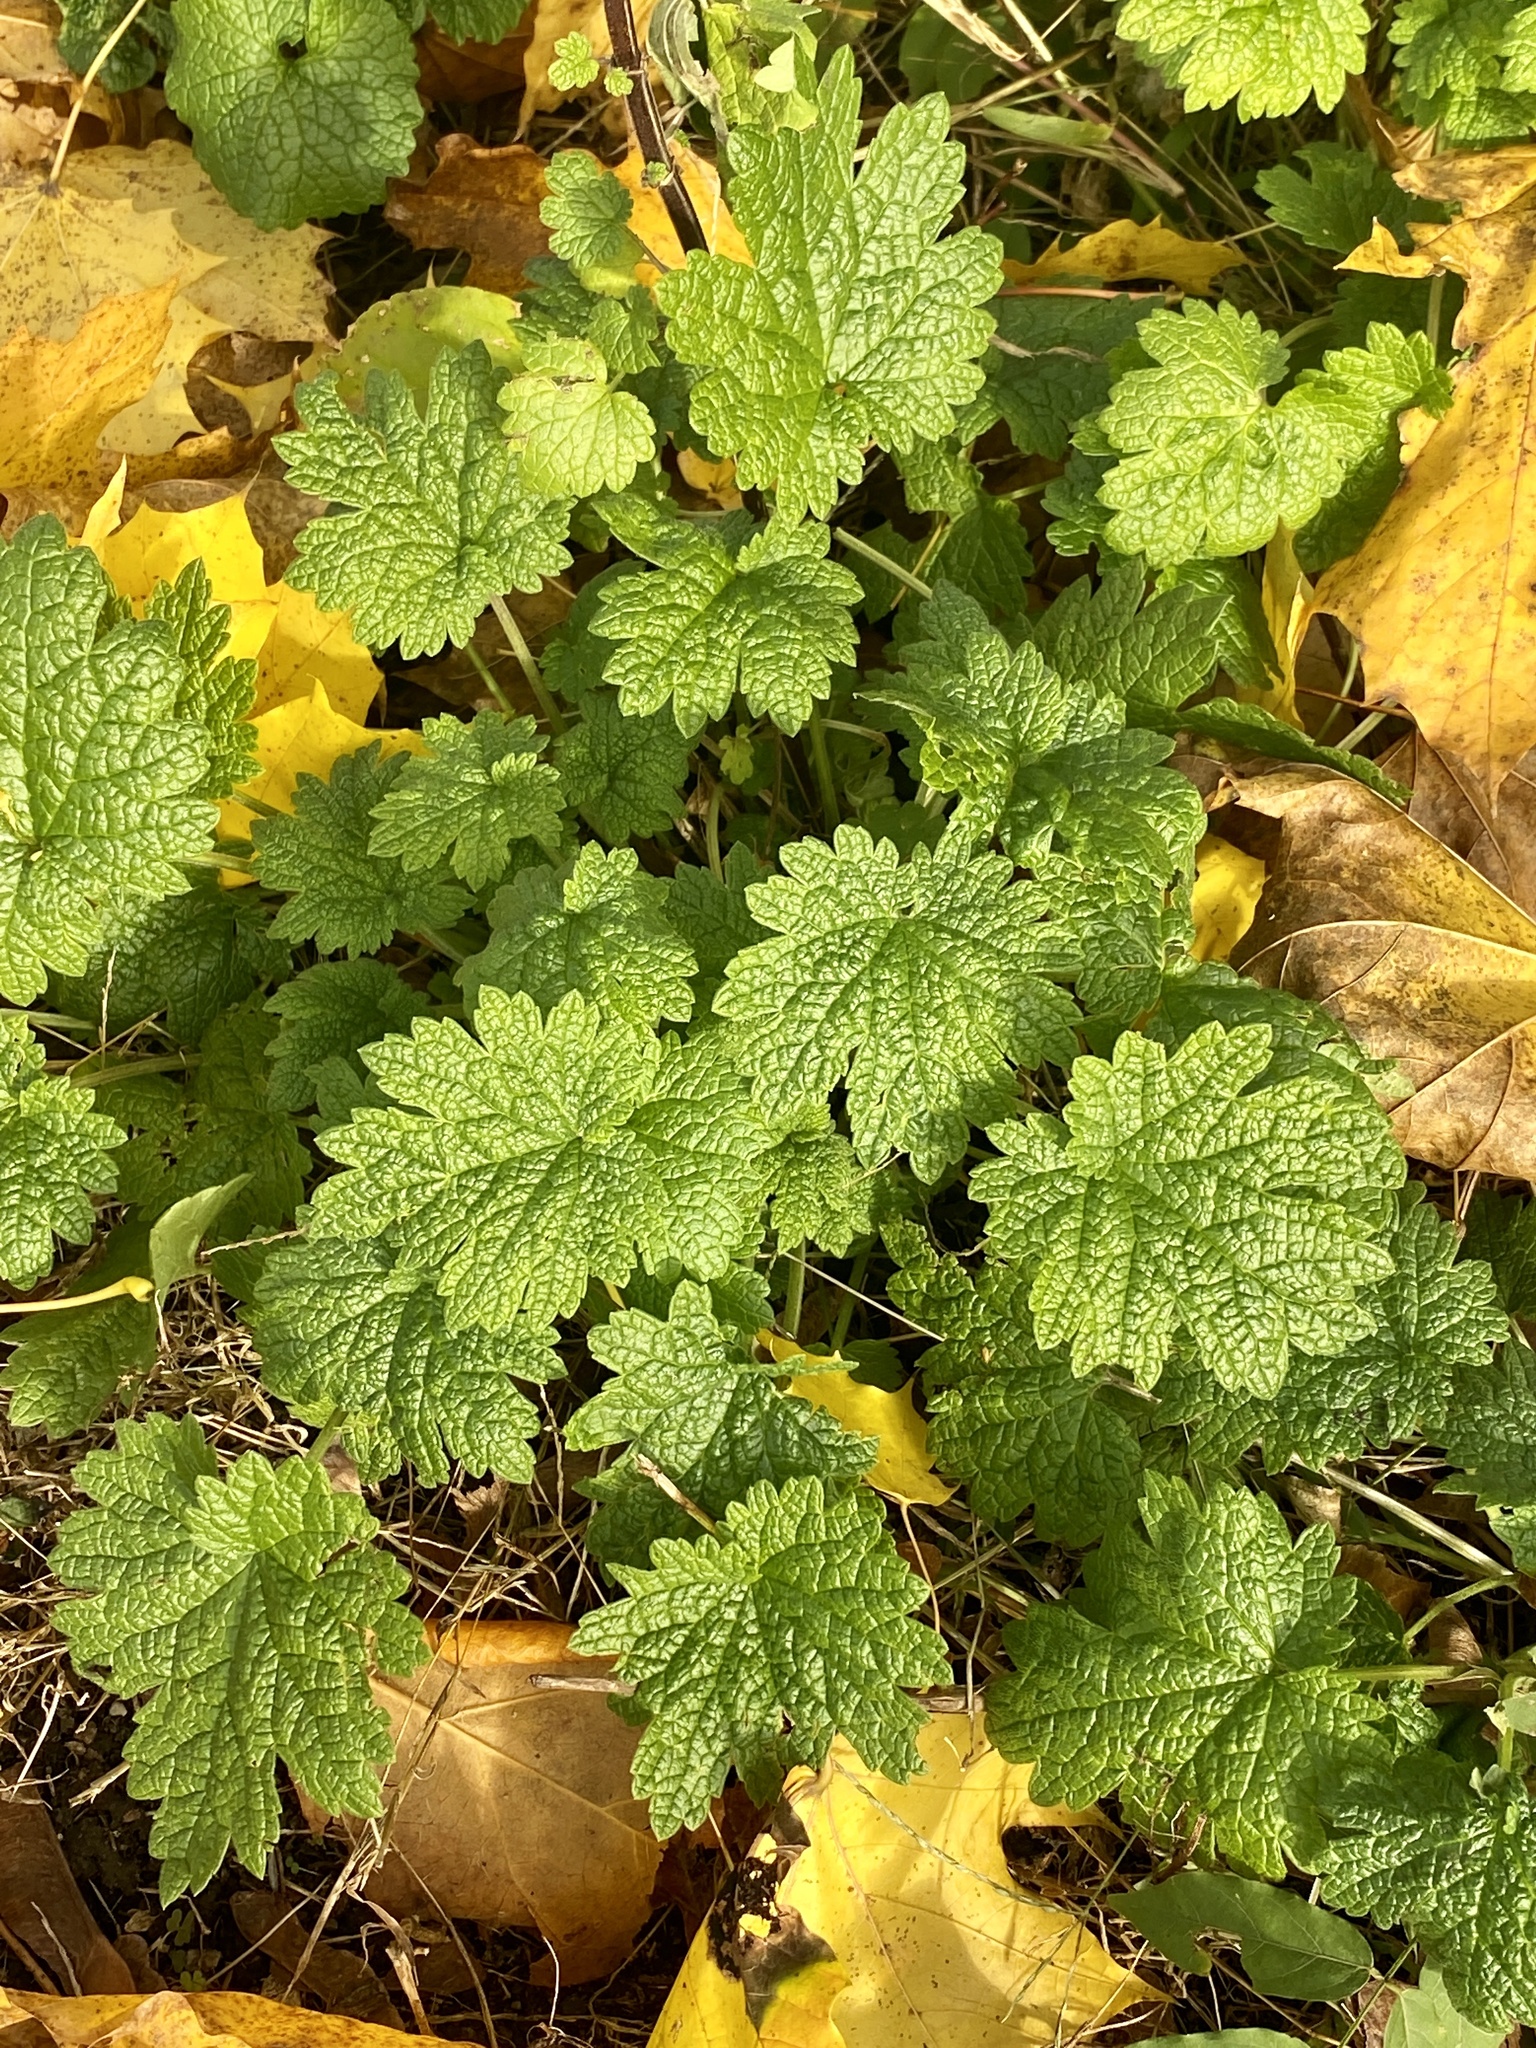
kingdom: Plantae
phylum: Tracheophyta
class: Magnoliopsida
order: Lamiales
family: Lamiaceae
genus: Leonurus
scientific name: Leonurus cardiaca
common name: Motherwort
